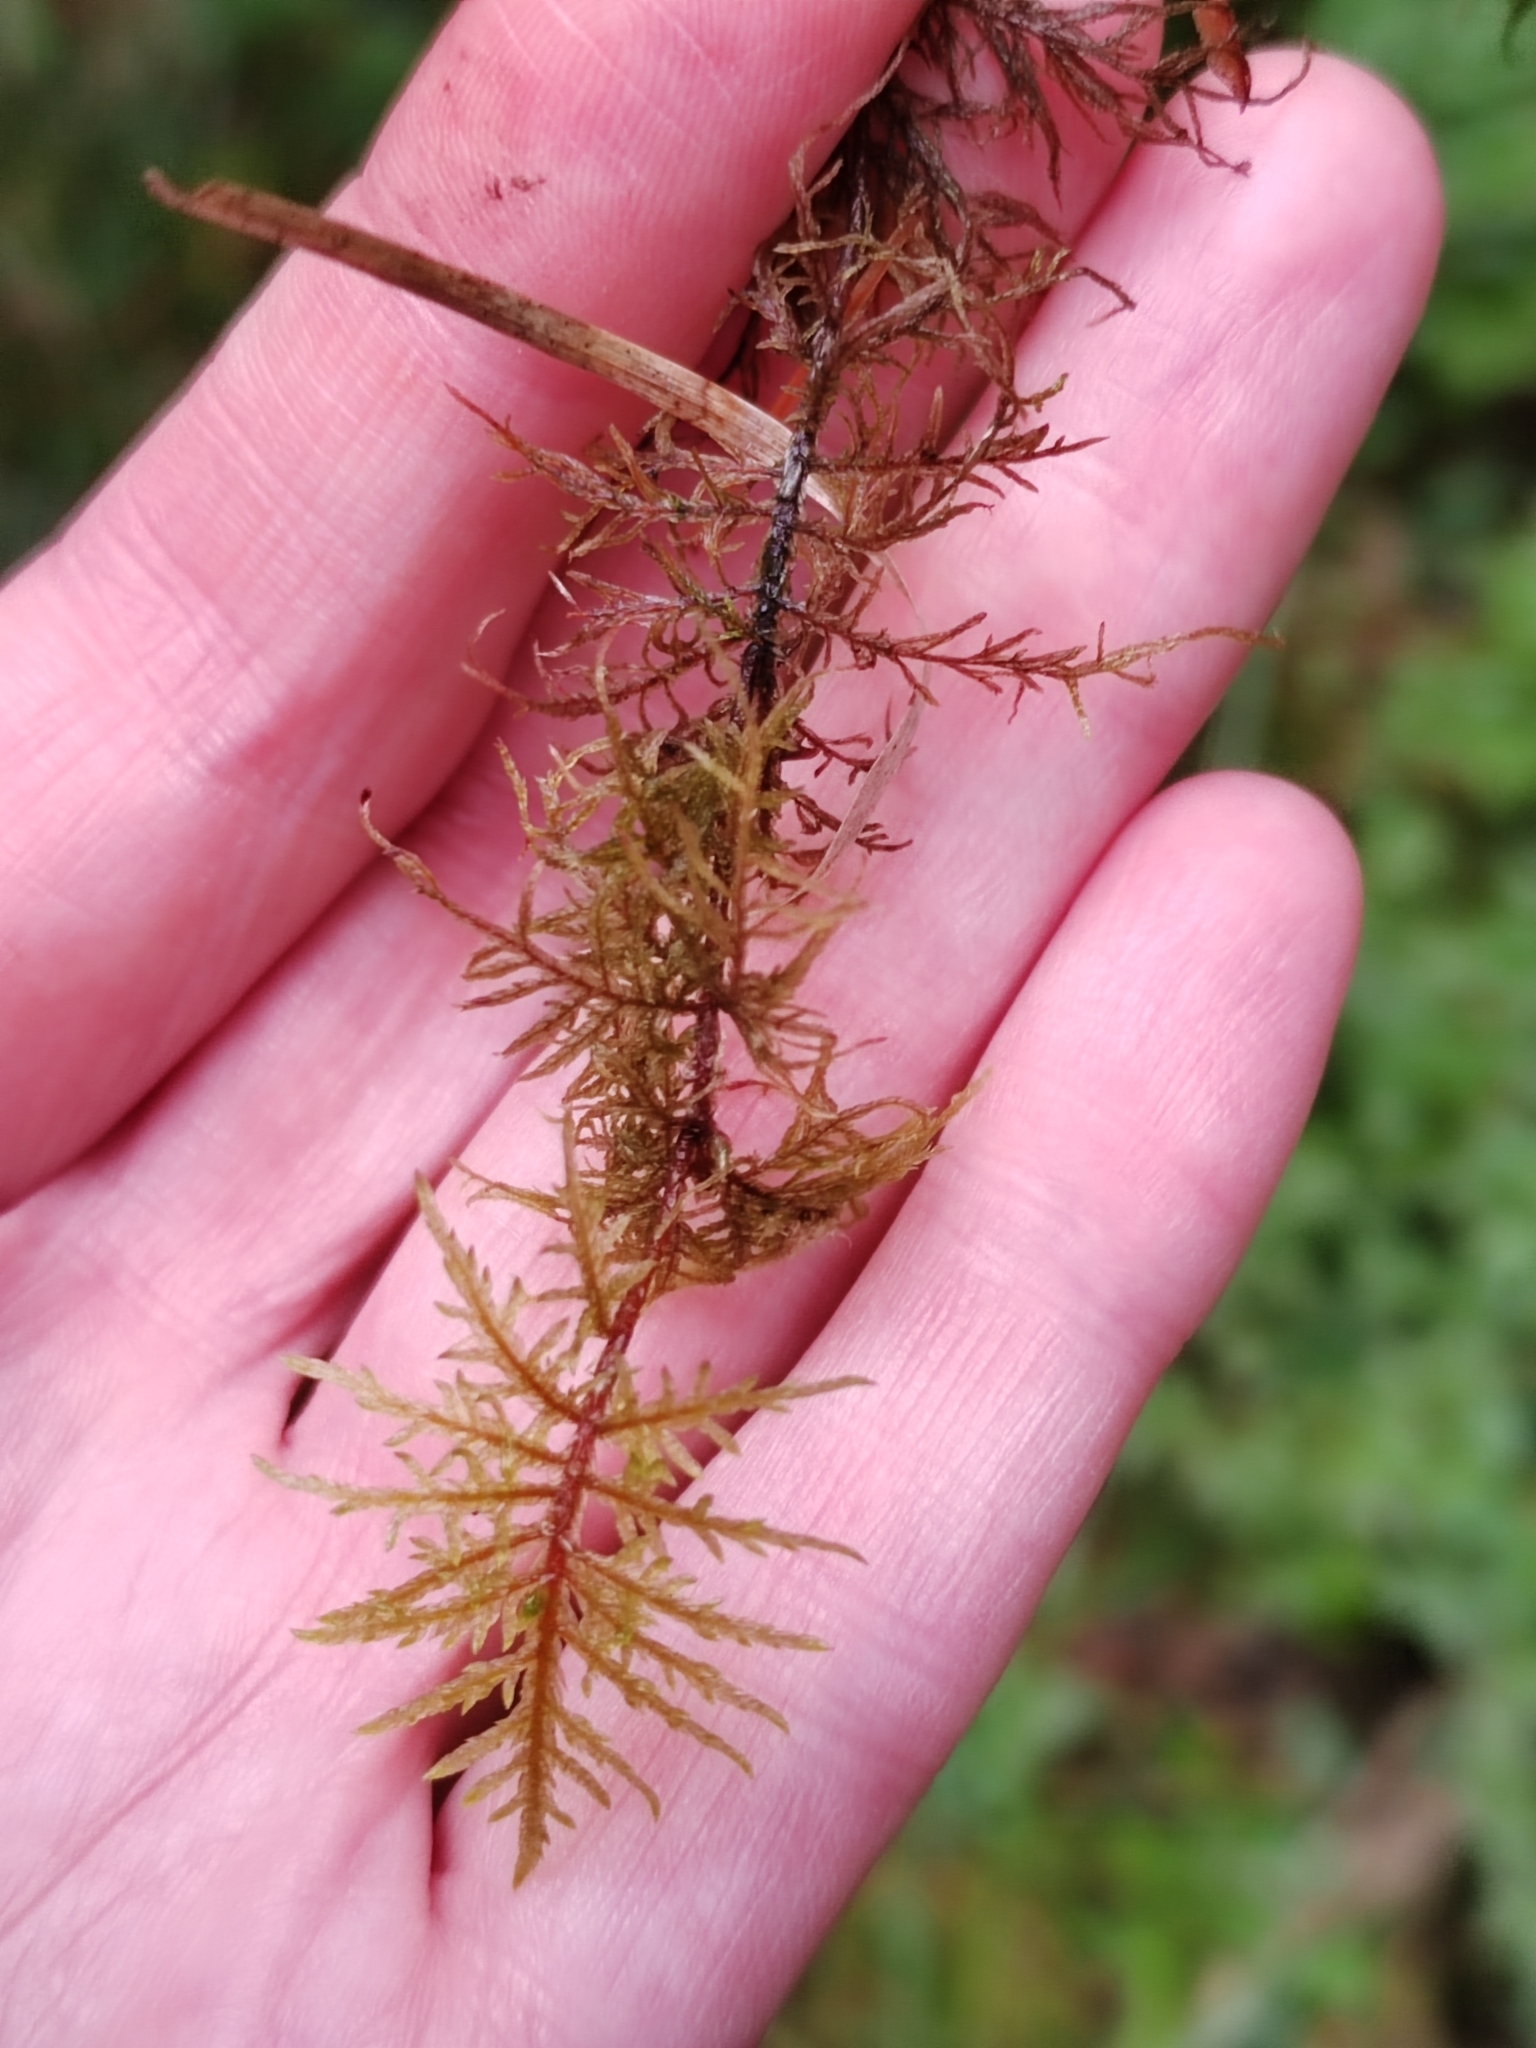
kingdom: Plantae
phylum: Bryophyta
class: Bryopsida
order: Hypnales
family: Hylocomiaceae
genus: Hylocomium
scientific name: Hylocomium splendens
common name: Stairstep moss
